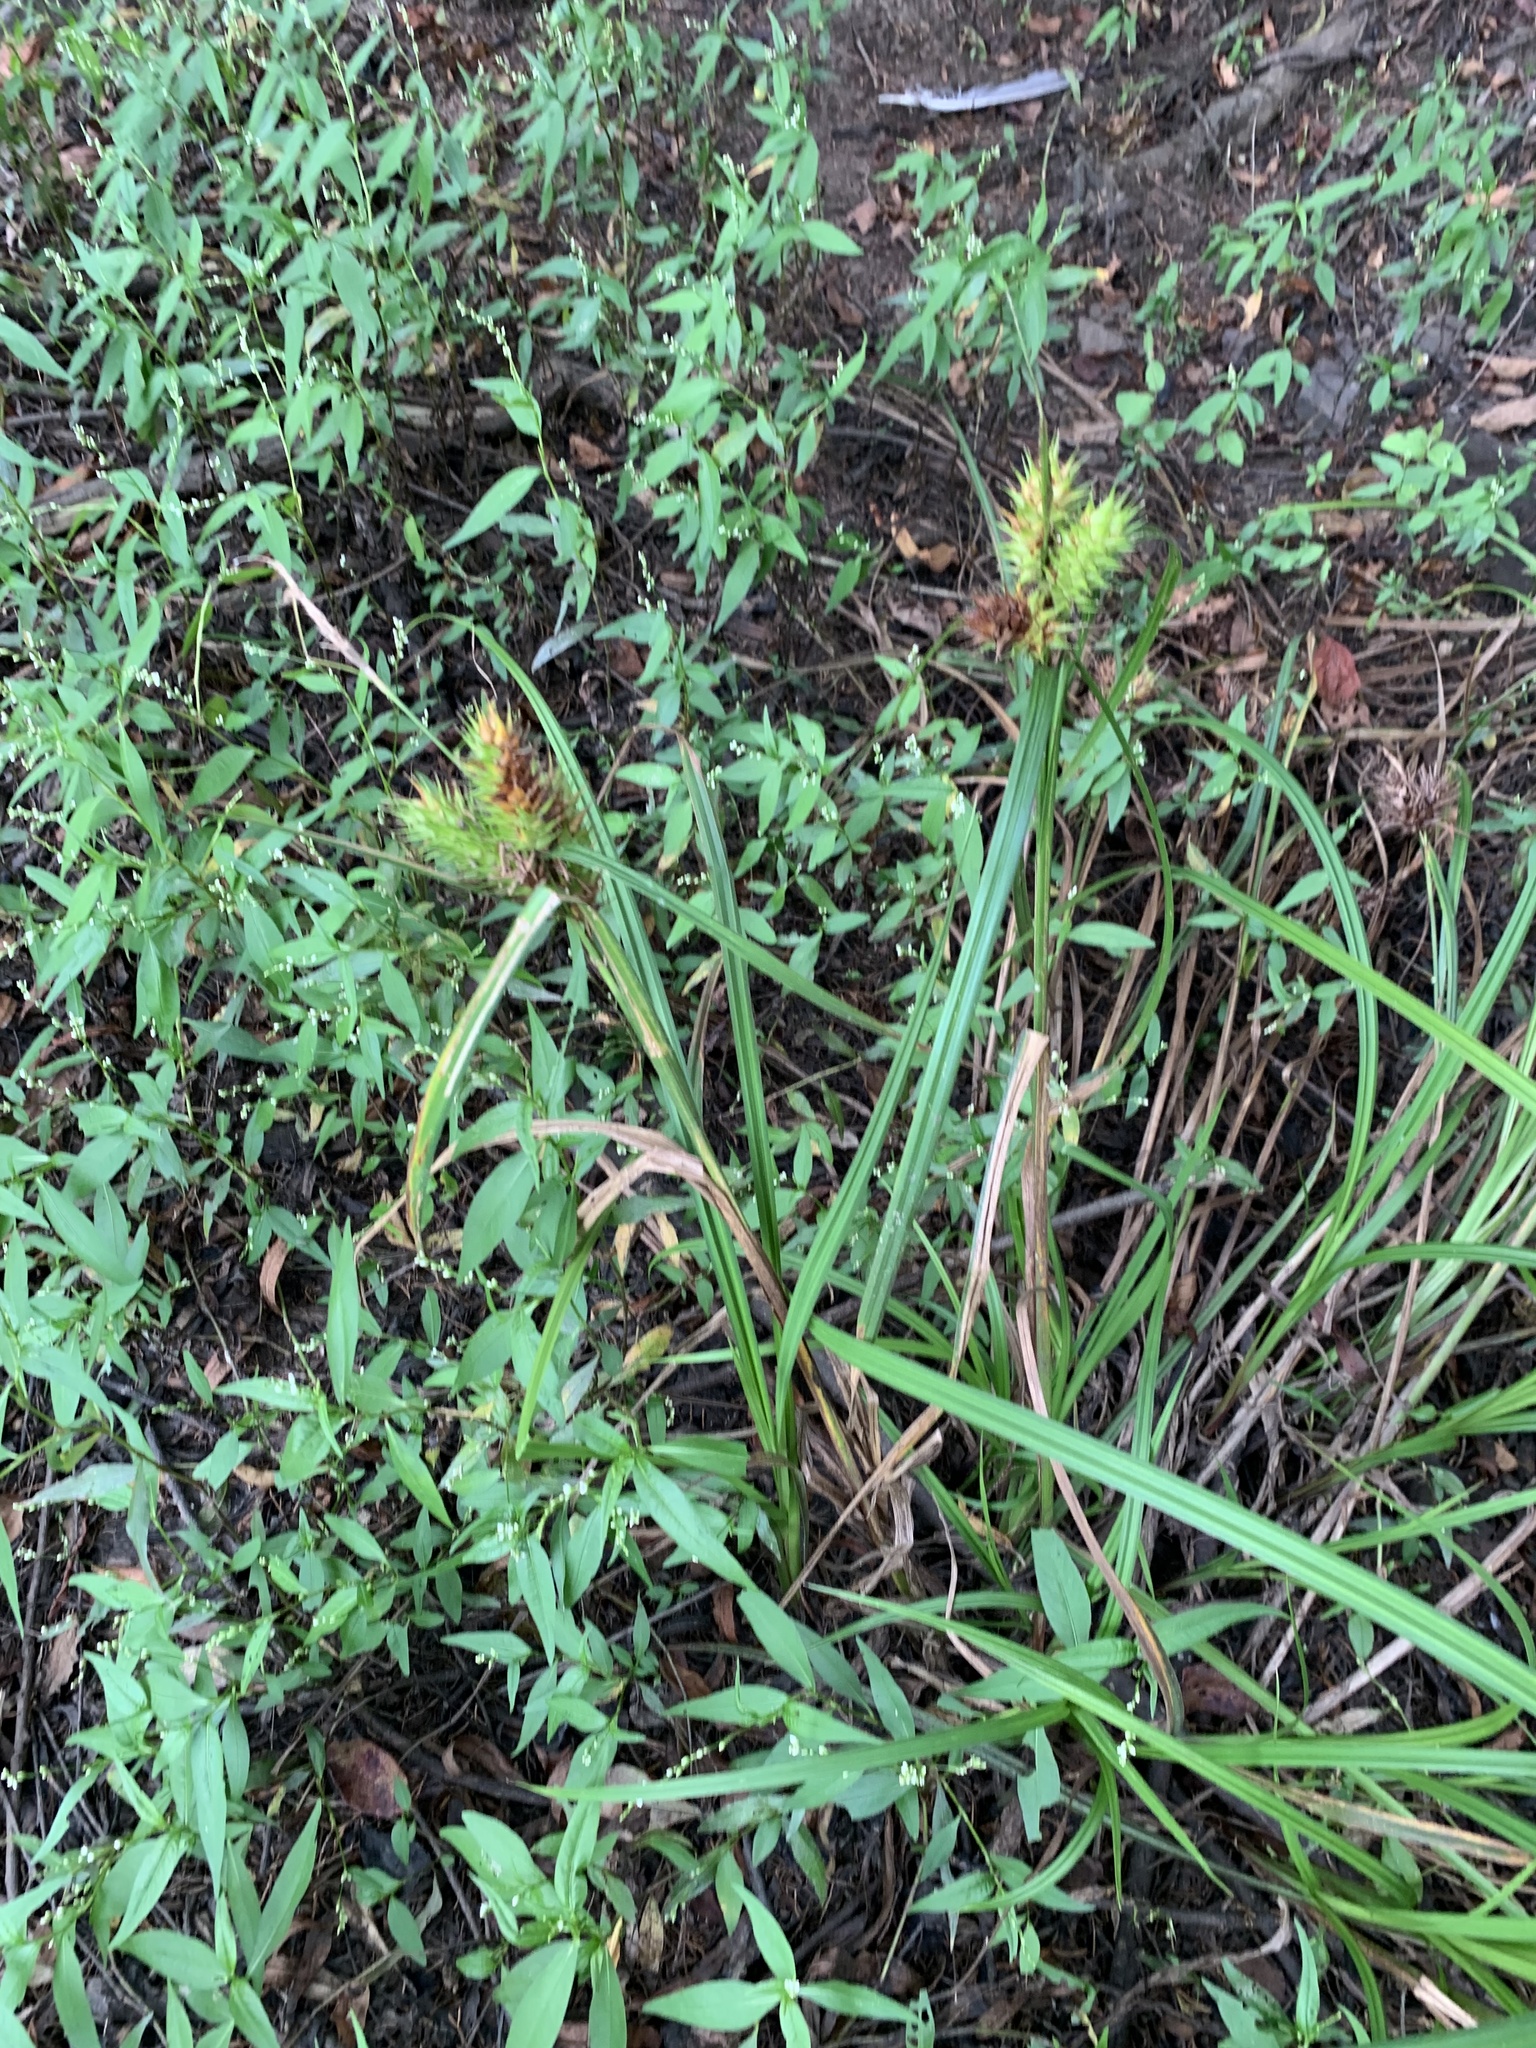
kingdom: Plantae
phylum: Tracheophyta
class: Liliopsida
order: Poales
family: Cyperaceae
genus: Carex
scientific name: Carex lupulina
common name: Hop sedge
